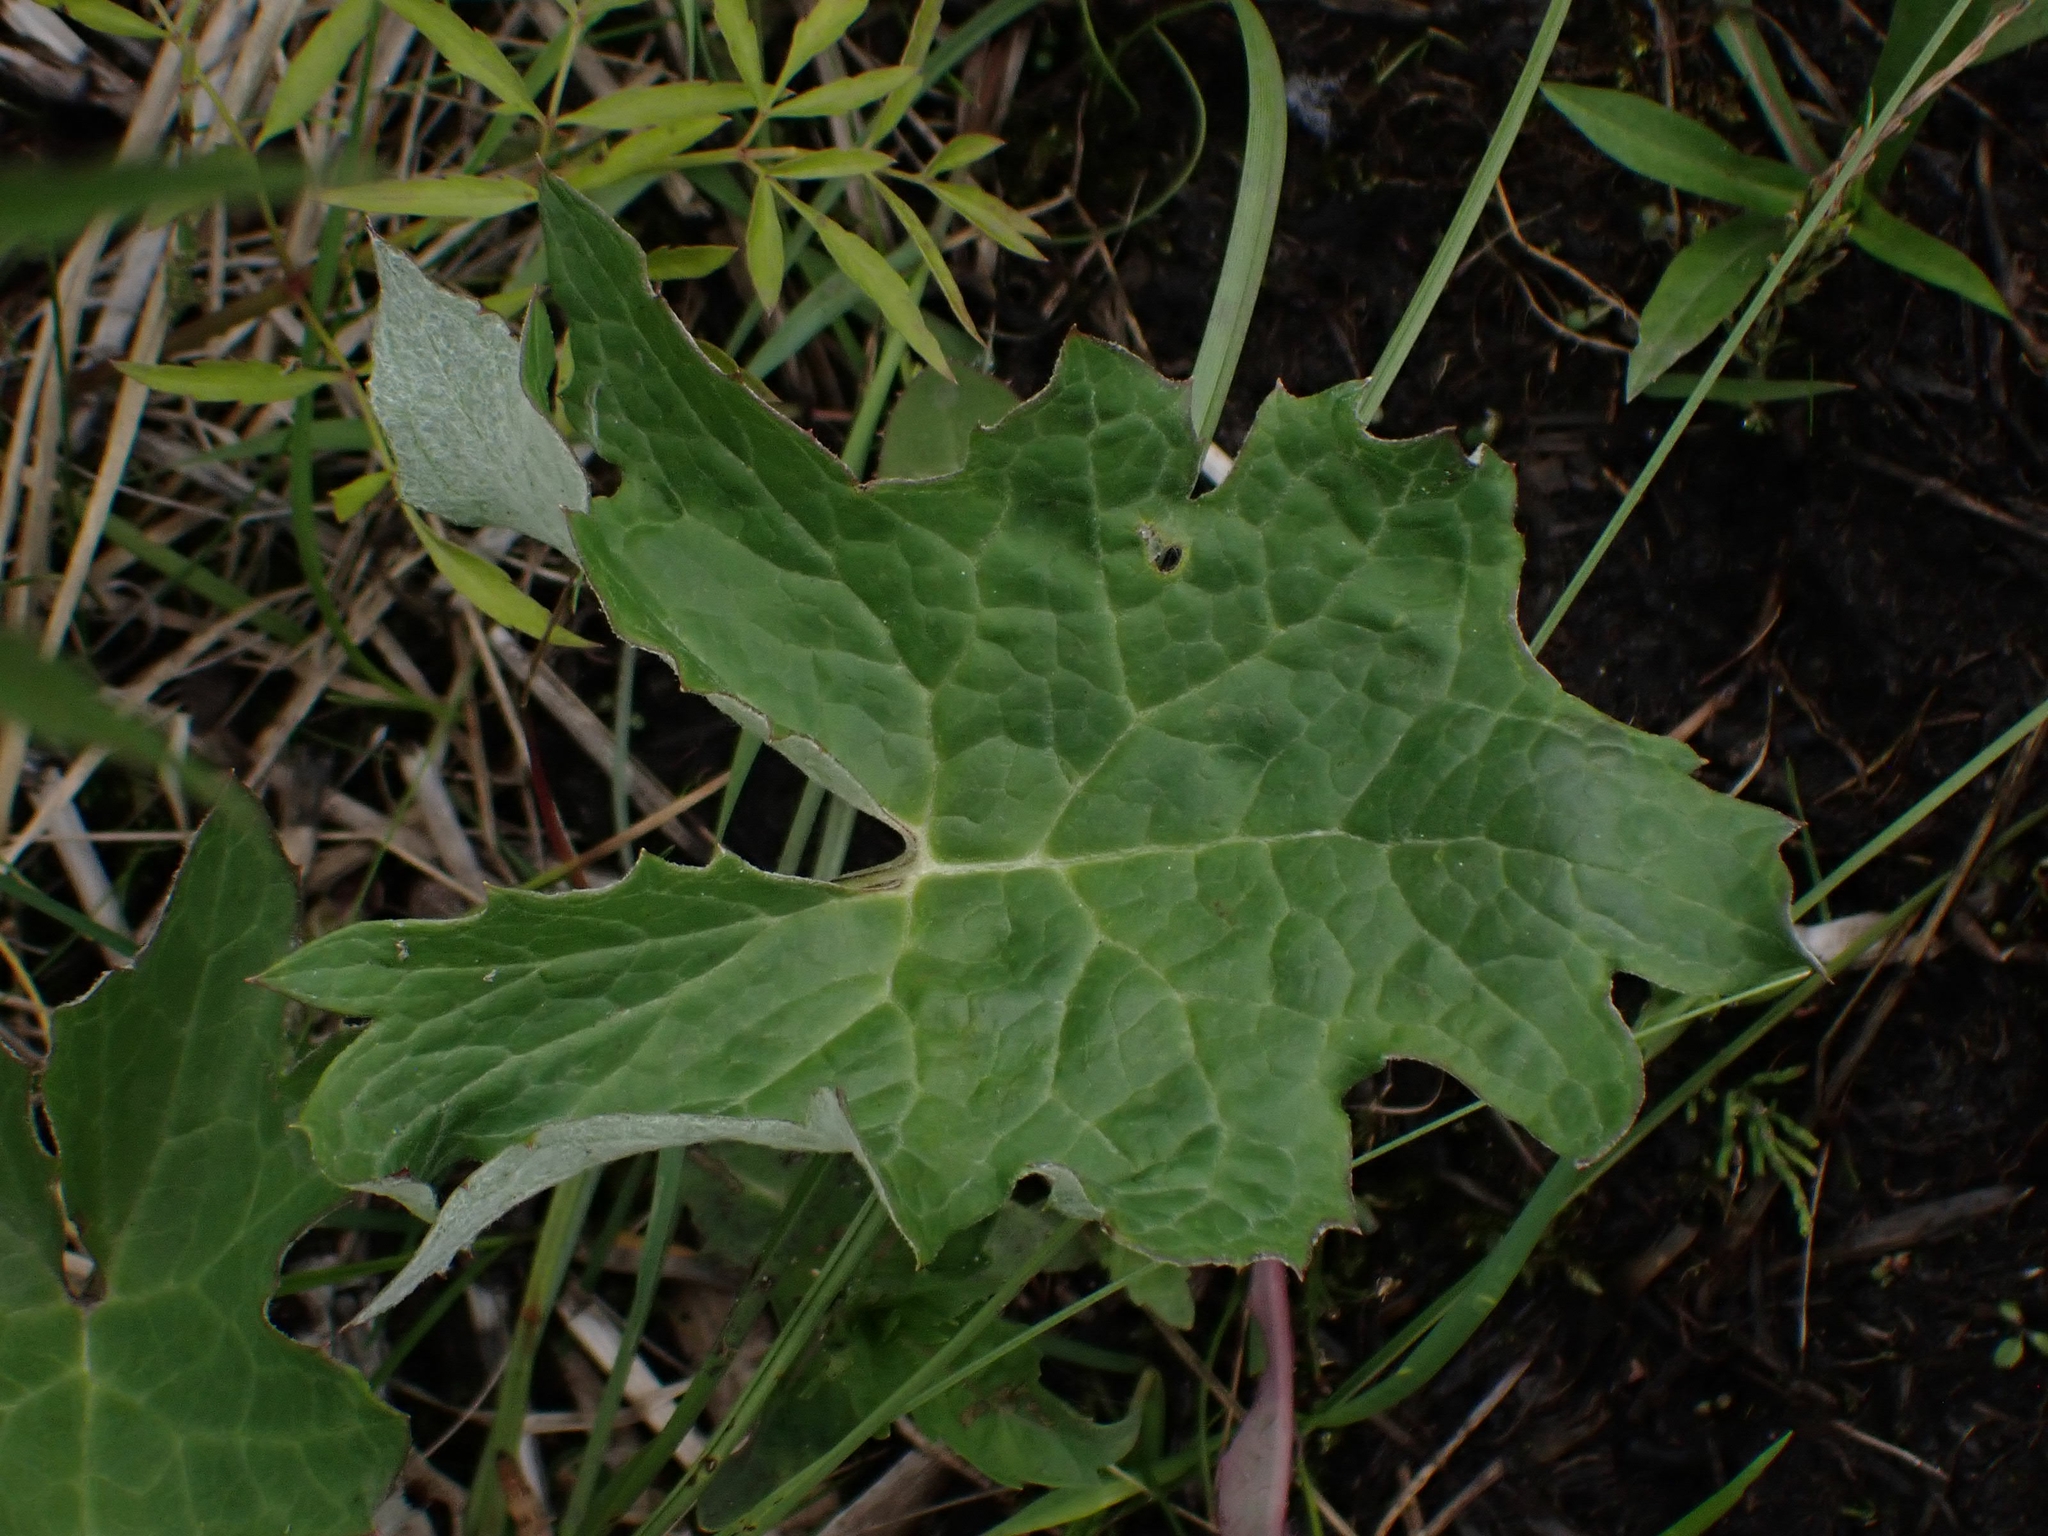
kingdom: Plantae
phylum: Tracheophyta
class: Magnoliopsida
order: Asterales
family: Asteraceae
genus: Petasites
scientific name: Petasites frigidus
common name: Arctic butterbur
